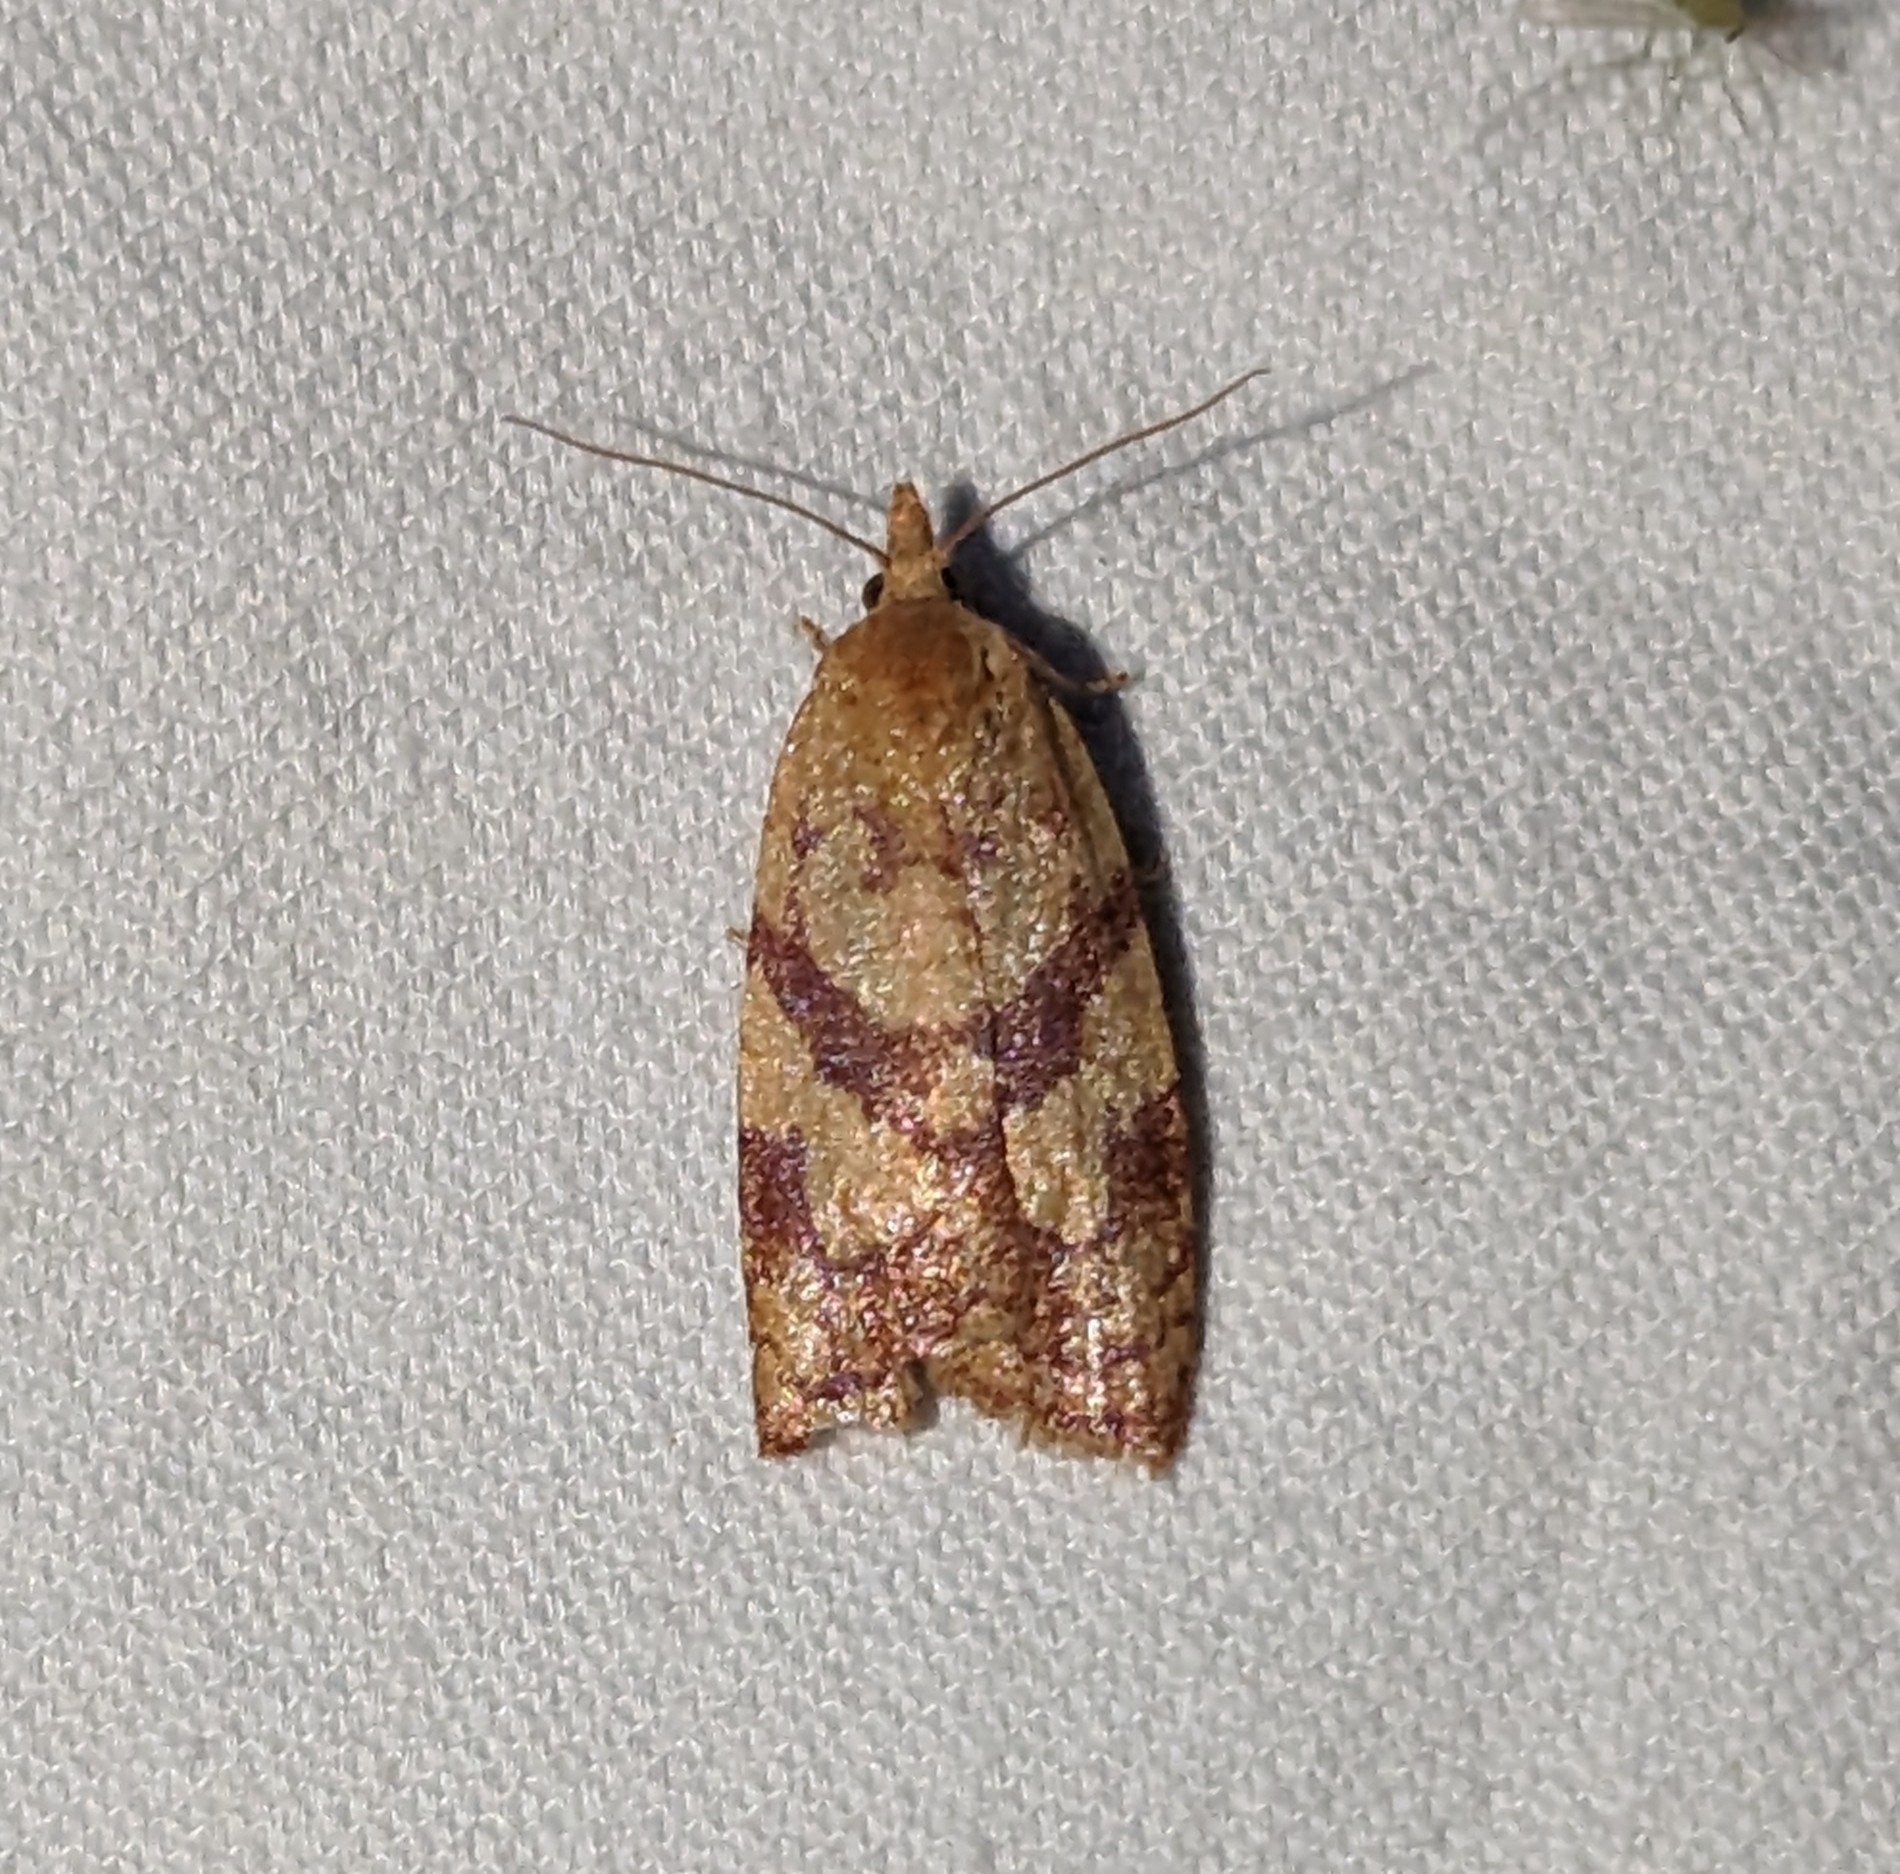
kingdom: Animalia
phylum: Arthropoda
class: Insecta
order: Lepidoptera
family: Tortricidae
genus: Sparganothis
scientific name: Sparganothis senecionana
